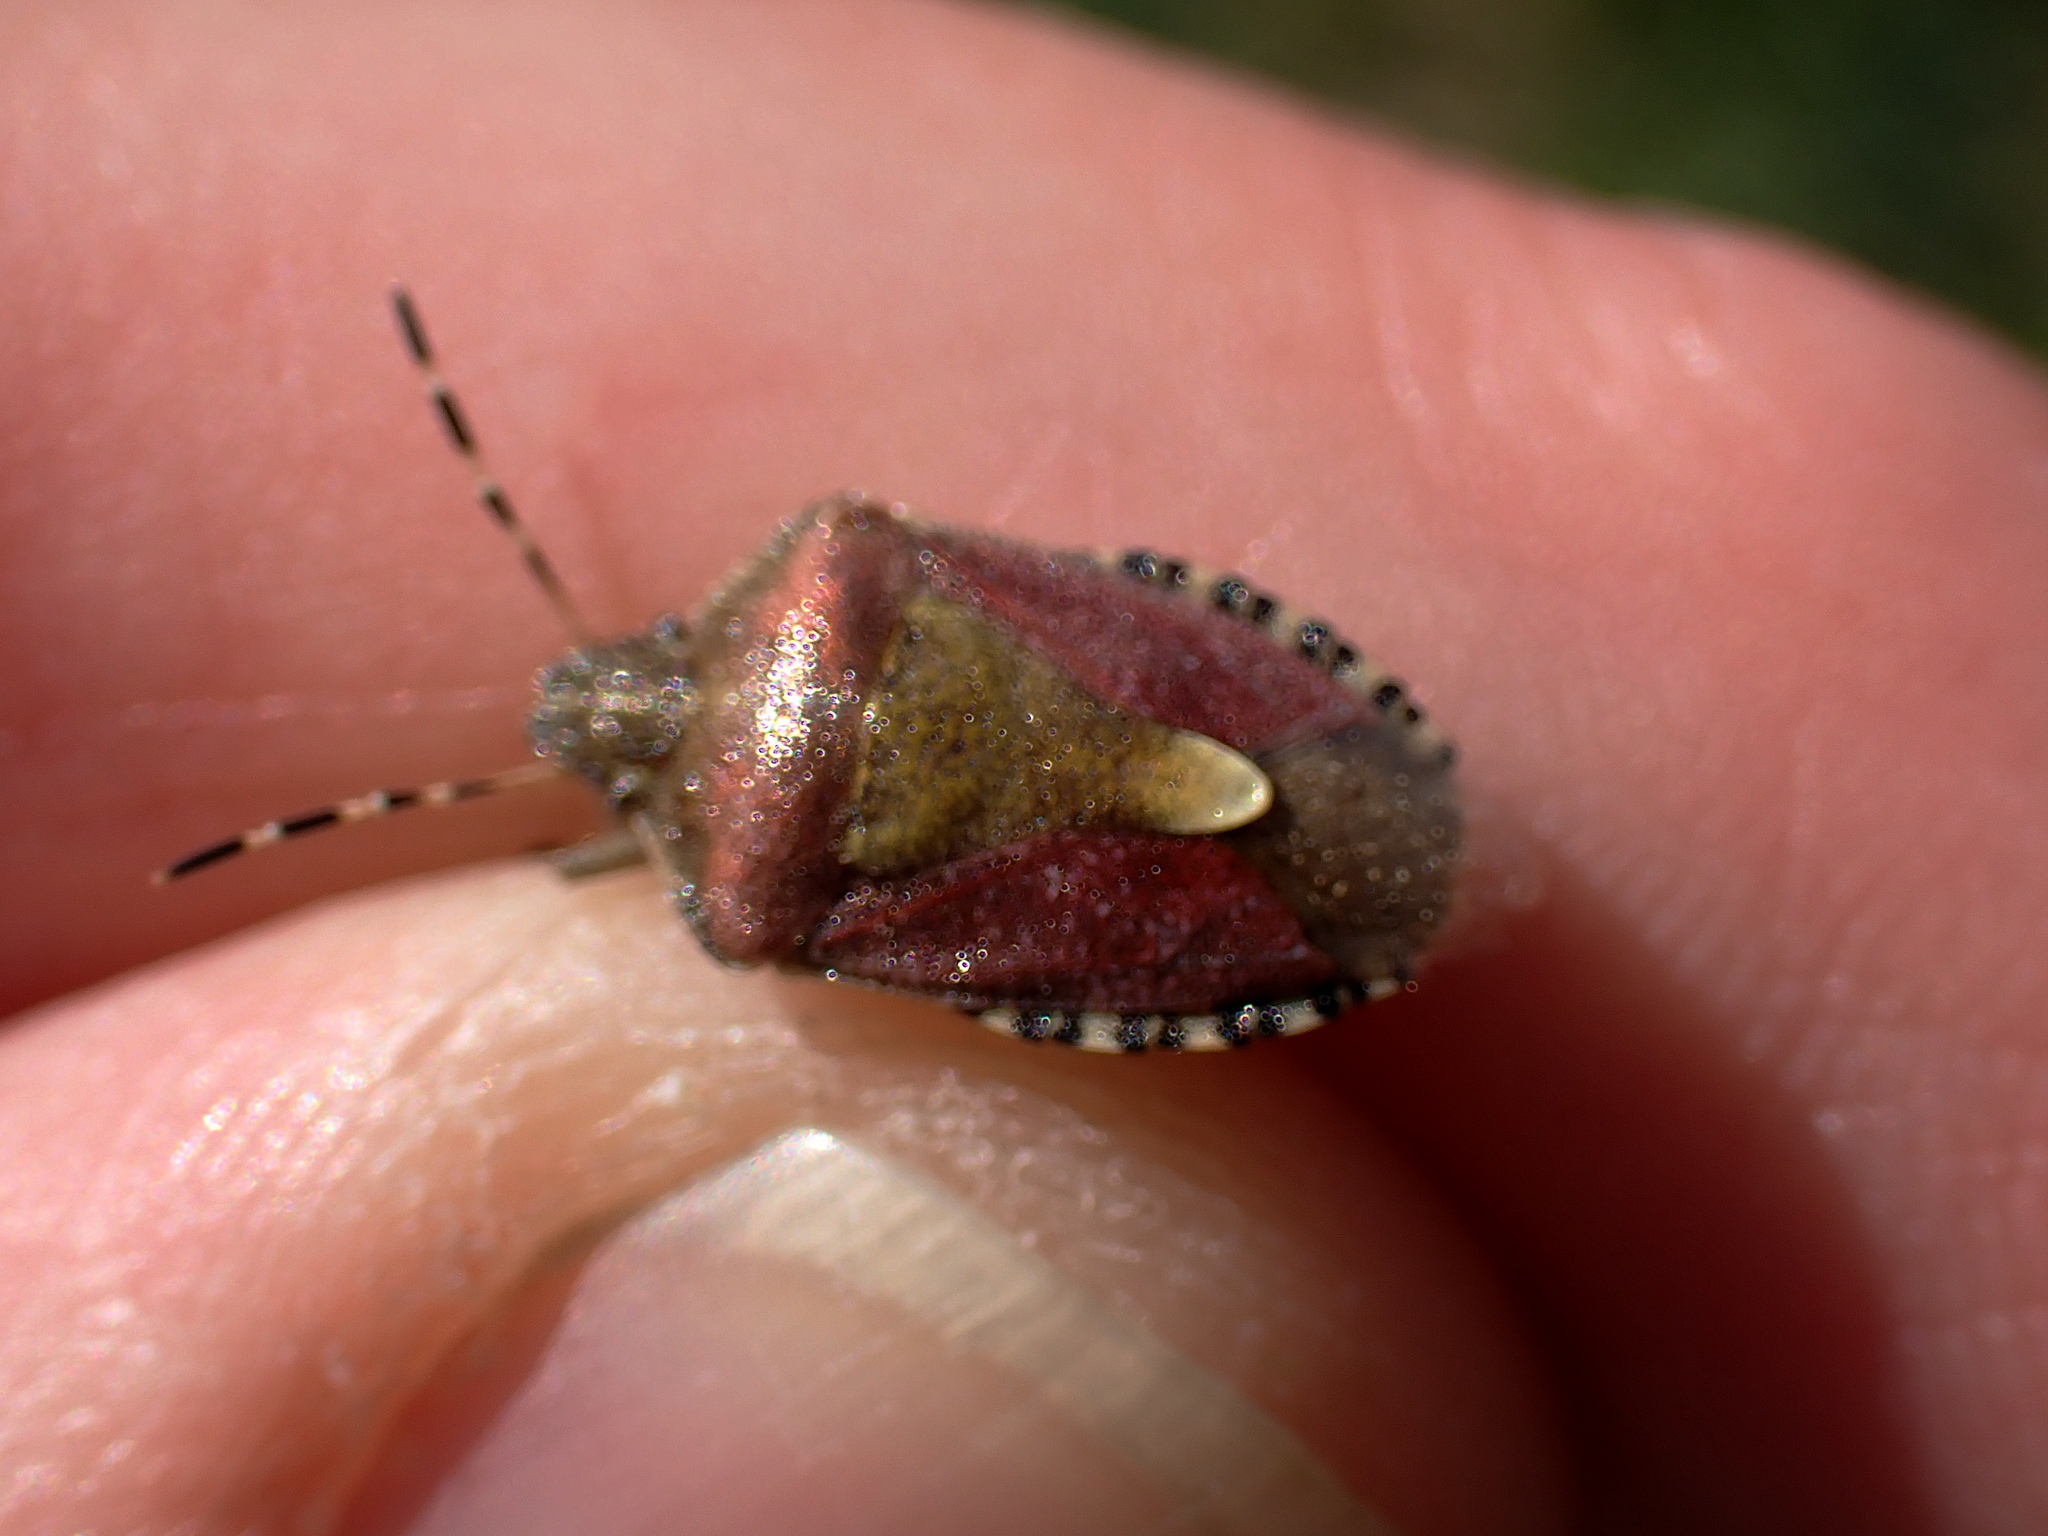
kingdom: Animalia
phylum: Arthropoda
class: Insecta
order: Hemiptera
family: Pentatomidae
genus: Dolycoris
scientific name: Dolycoris baccarum
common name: Sloe bug
